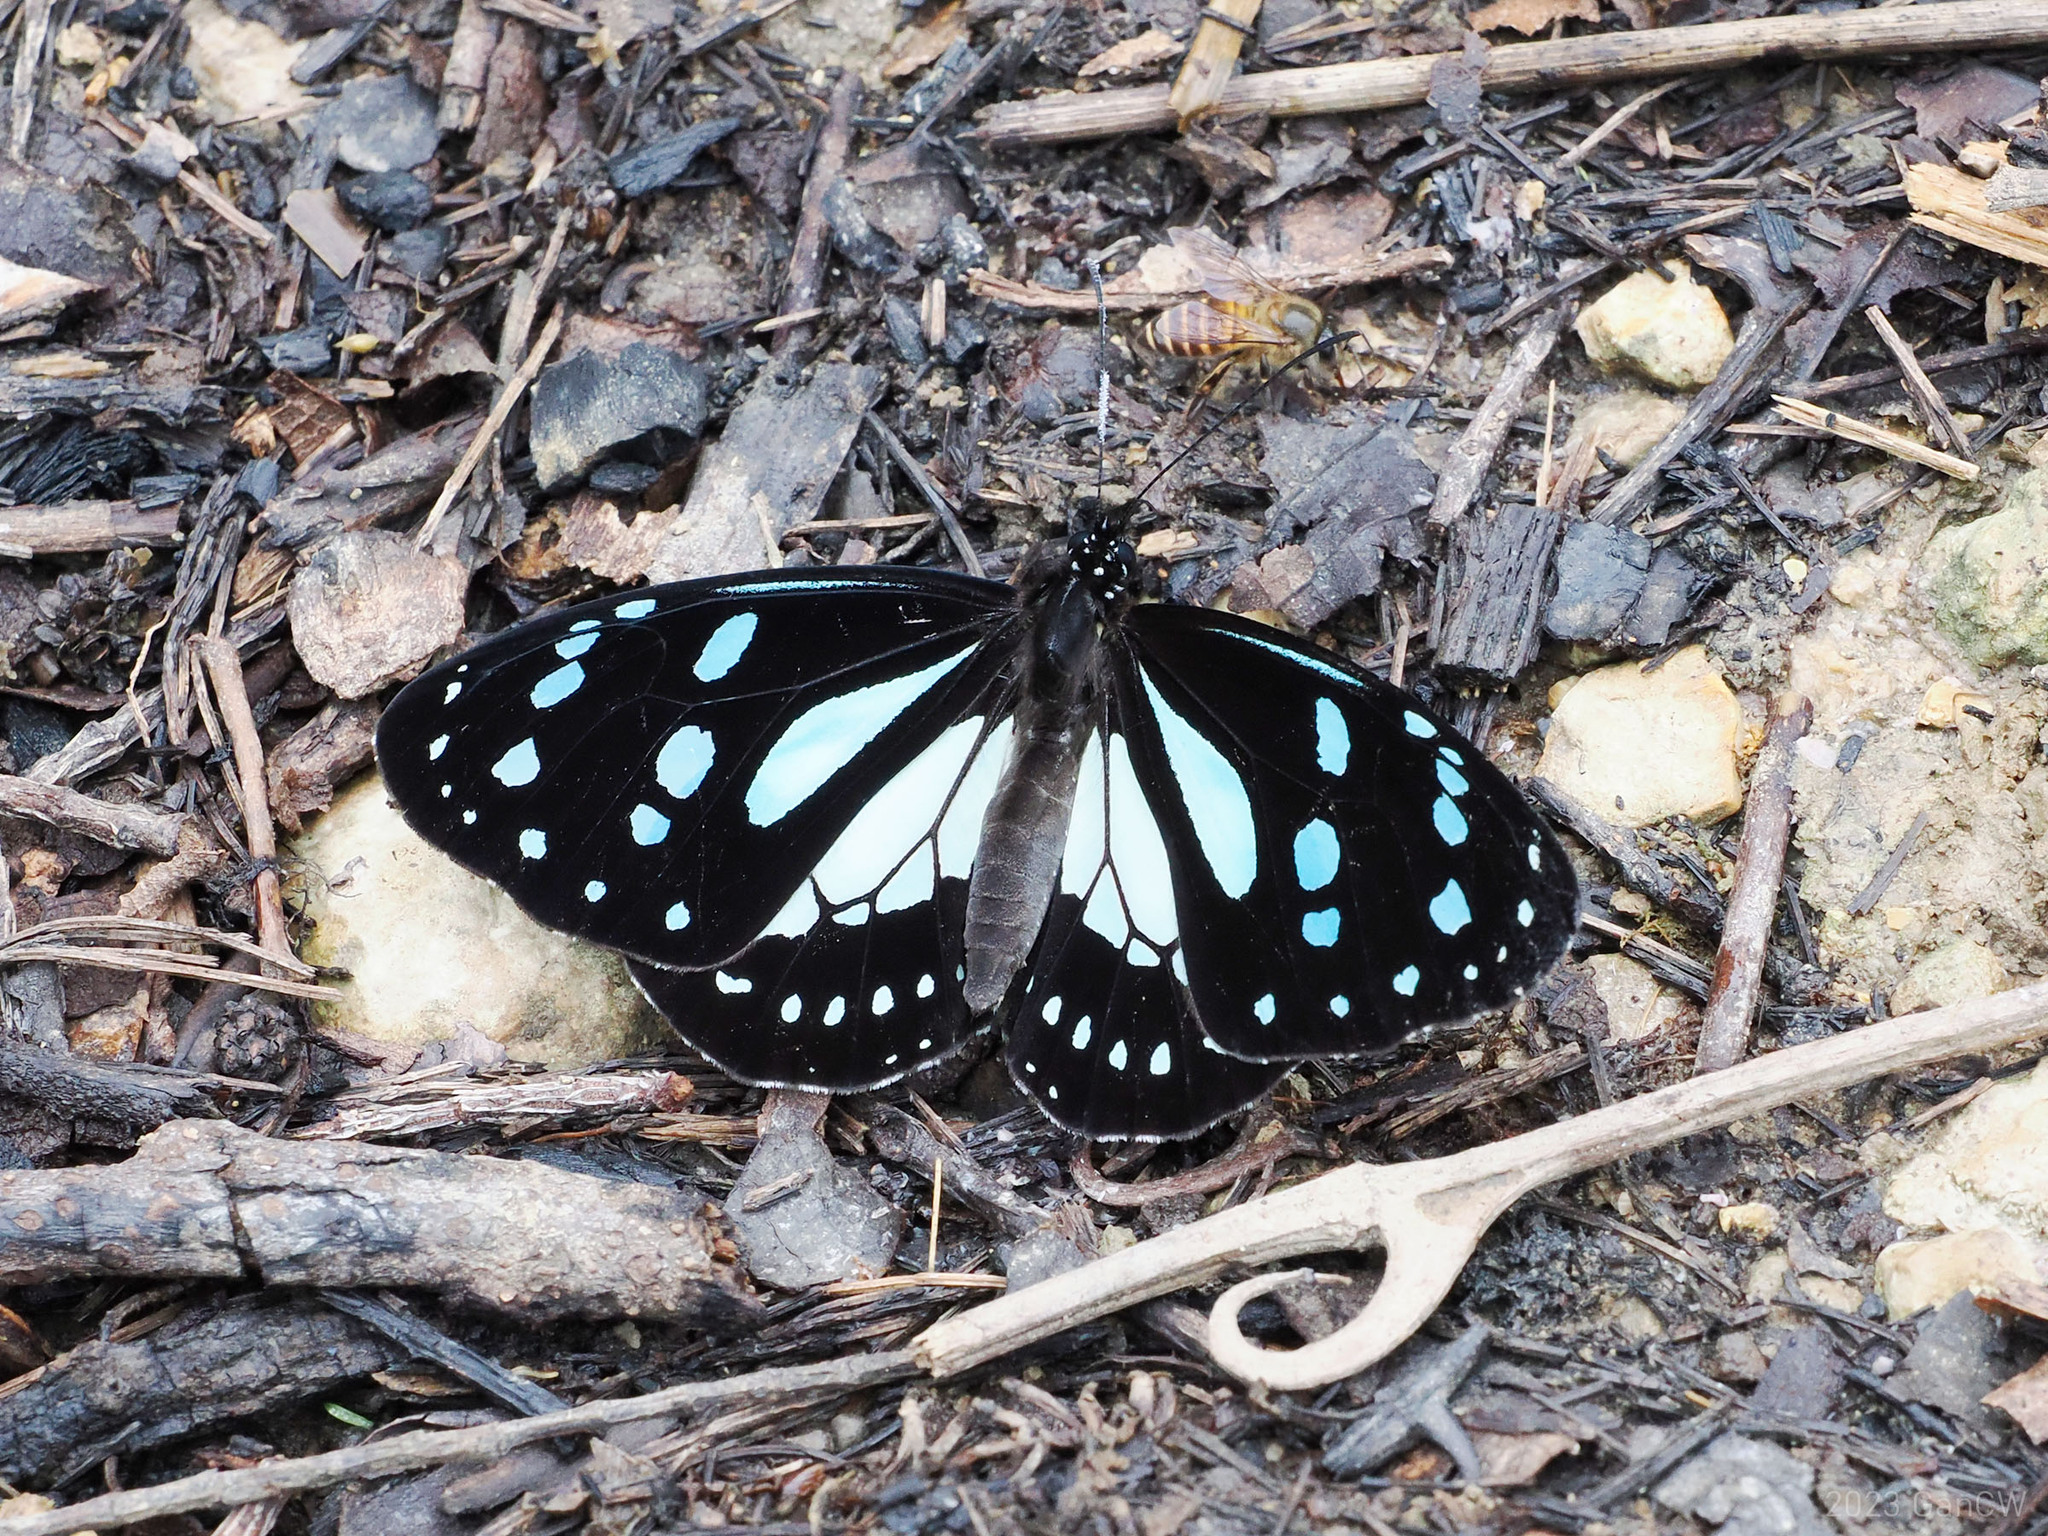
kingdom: Animalia
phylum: Arthropoda
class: Insecta
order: Lepidoptera
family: Nymphalidae
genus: Miriamica
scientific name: Miriamica weiskei
